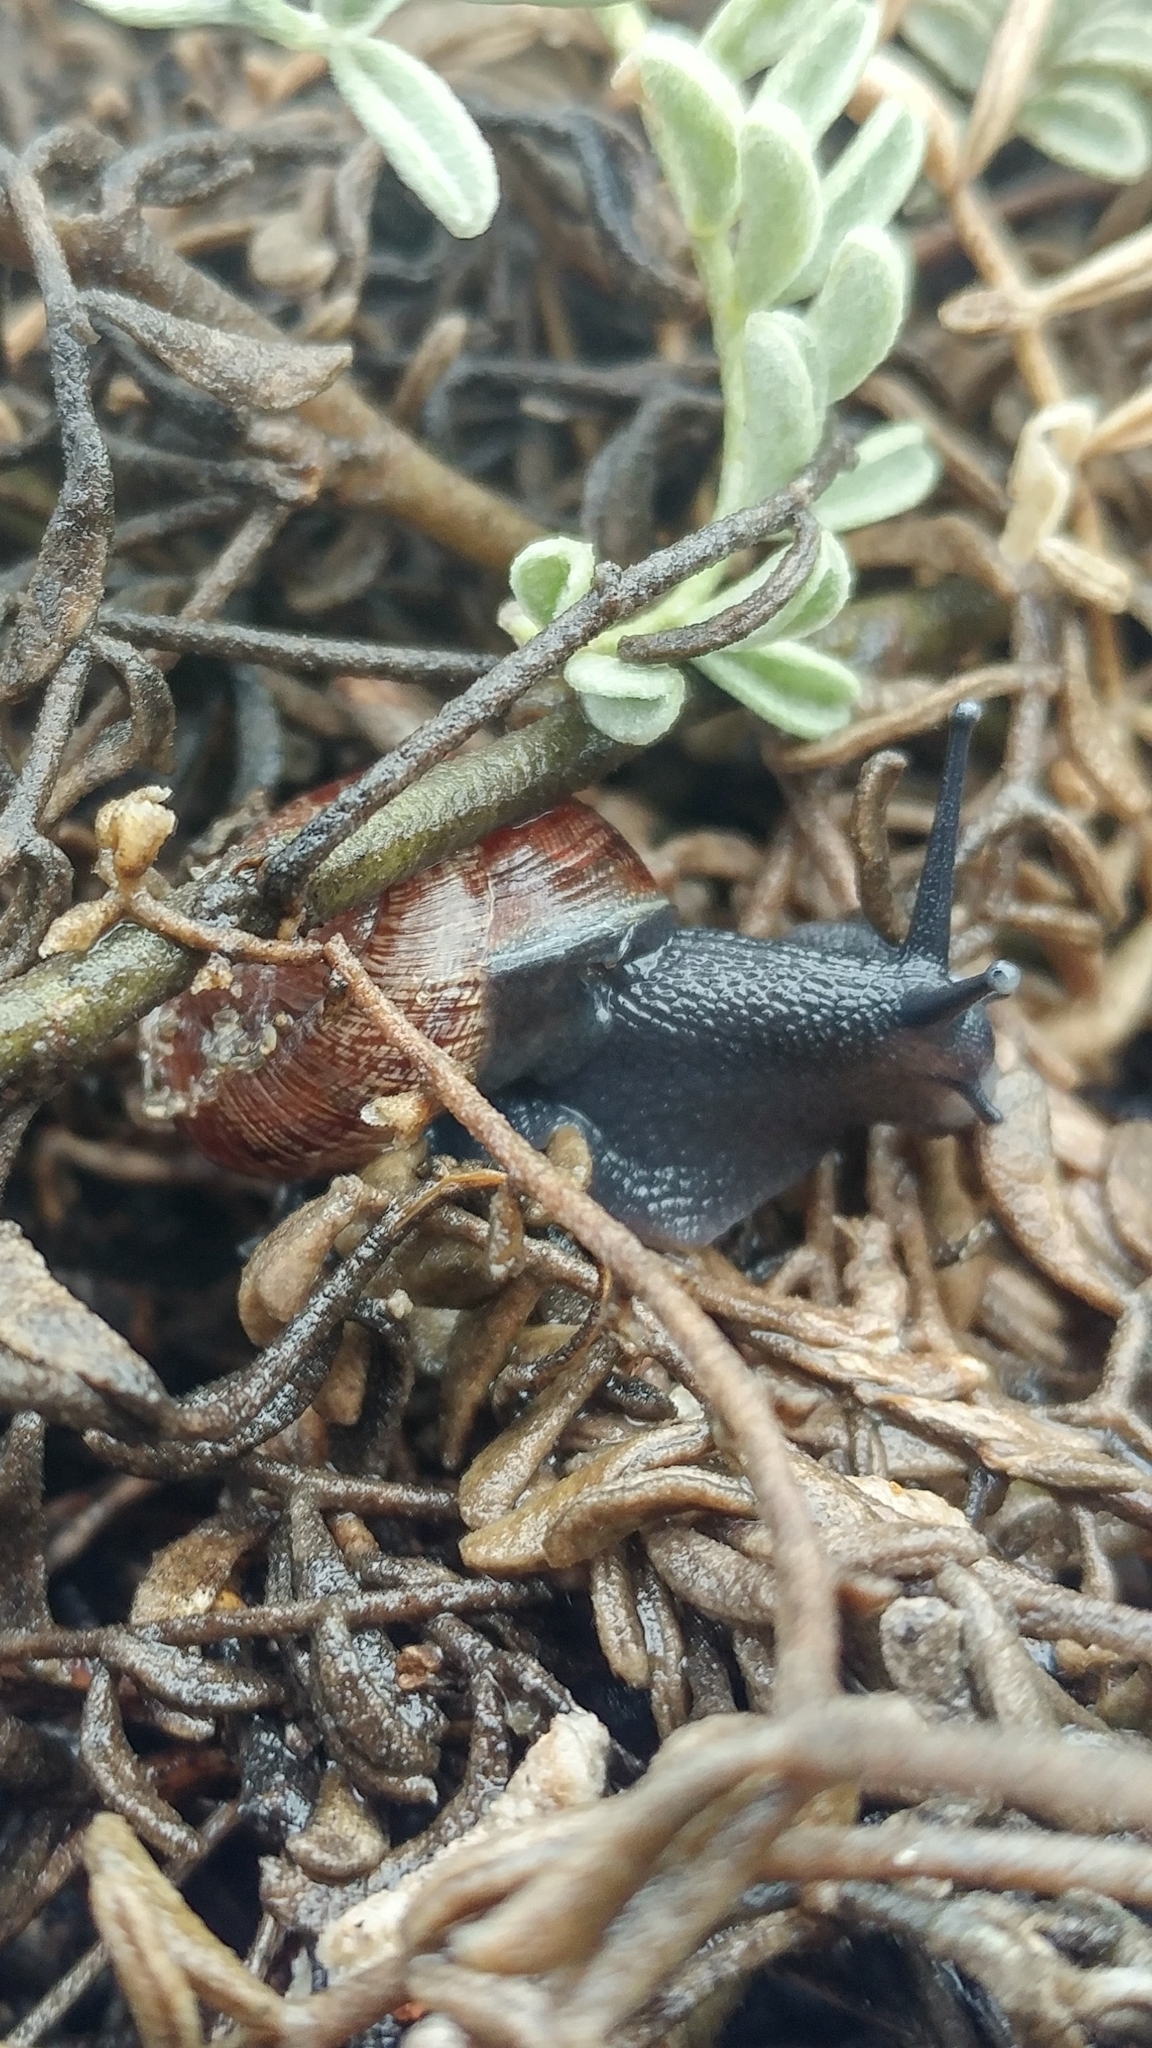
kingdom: Animalia
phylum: Mollusca
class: Gastropoda
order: Stylommatophora
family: Xanthonychidae
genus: Xerarionta
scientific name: Xerarionta intercisa
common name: Plain cactus snail
